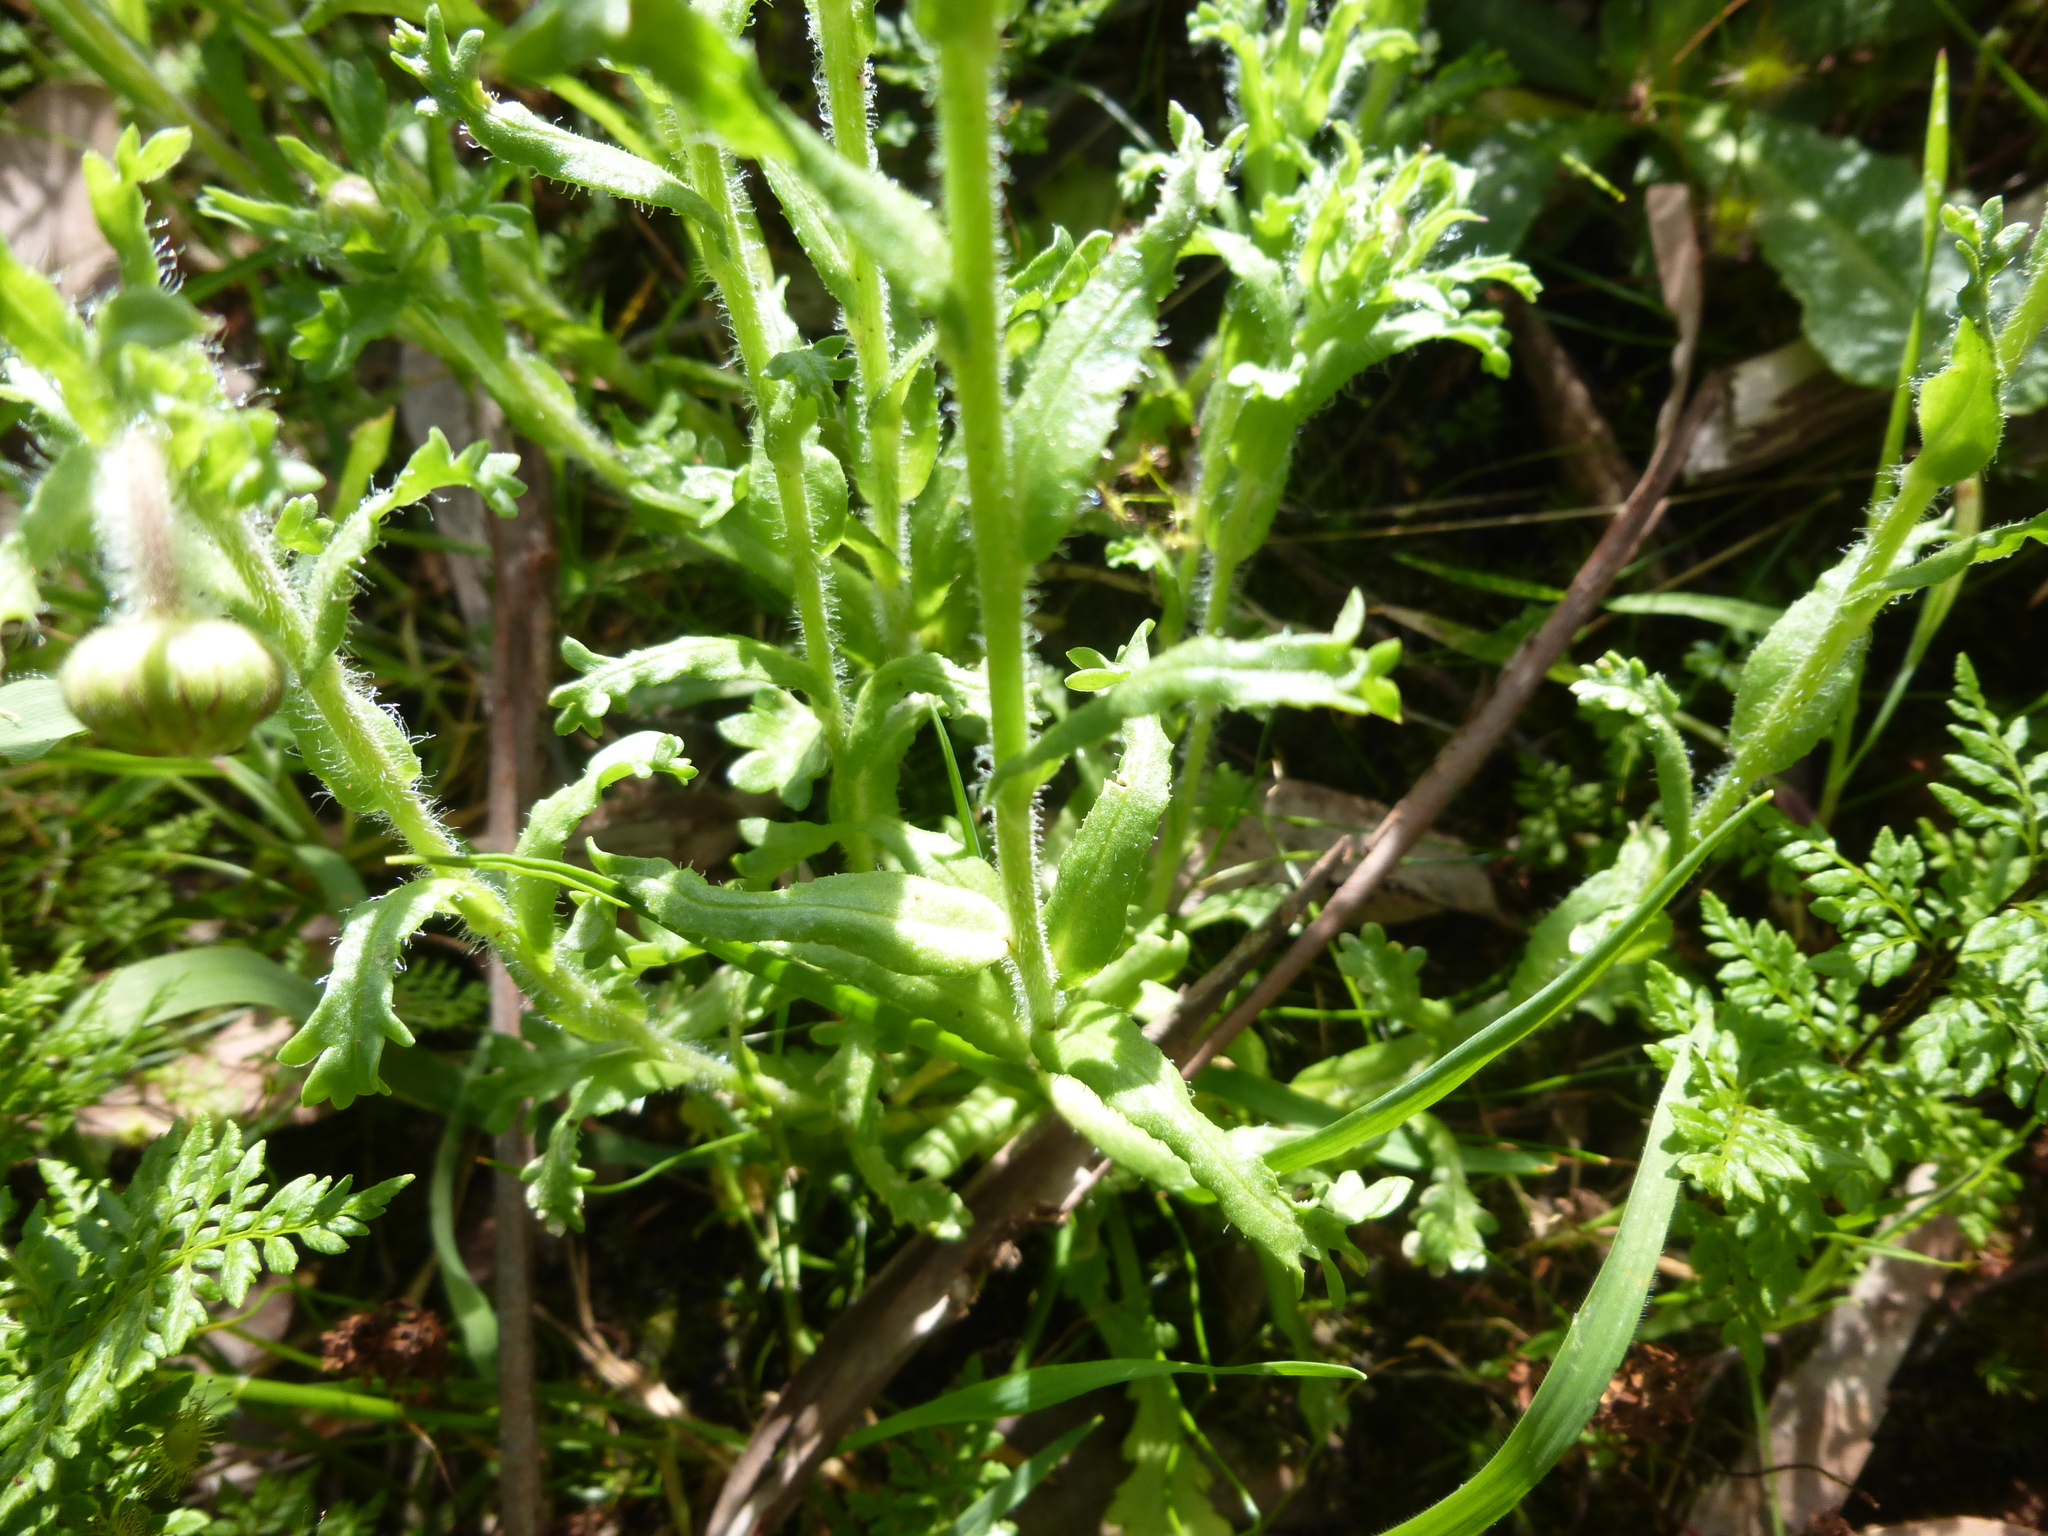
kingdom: Plantae
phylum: Tracheophyta
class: Magnoliopsida
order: Asterales
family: Asteraceae
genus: Brachyscome
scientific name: Brachyscome diversifolia
